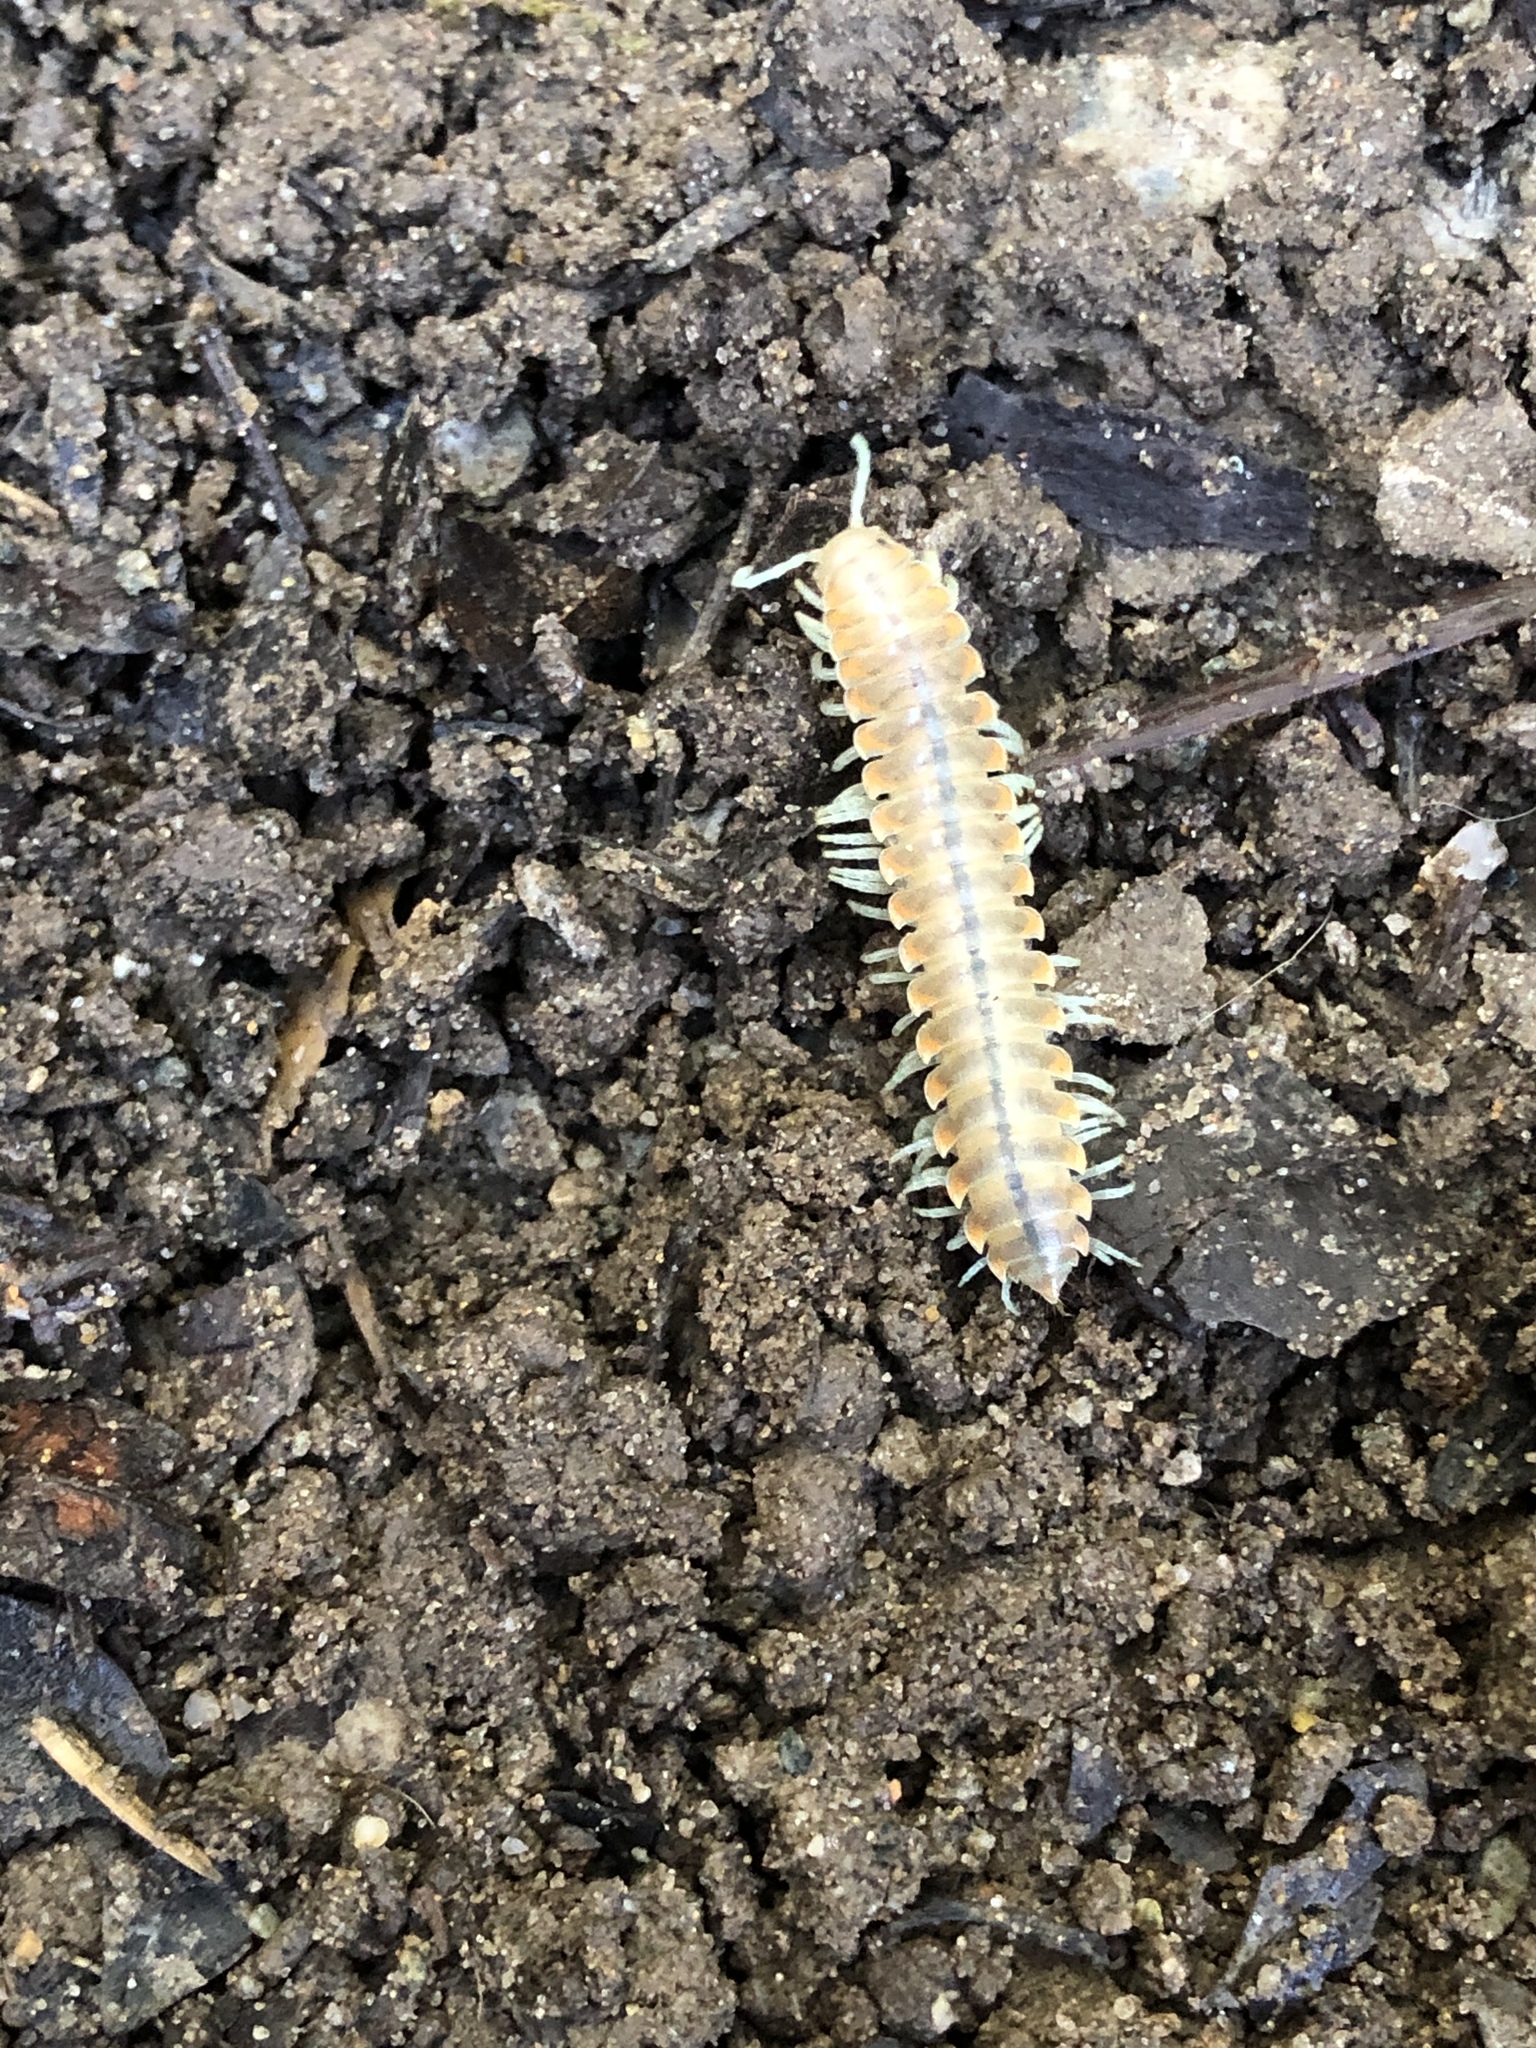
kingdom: Animalia
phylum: Arthropoda
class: Diplopoda
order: Polydesmida
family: Xystodesmidae
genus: Xystocheir
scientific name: Xystocheir dissecta
